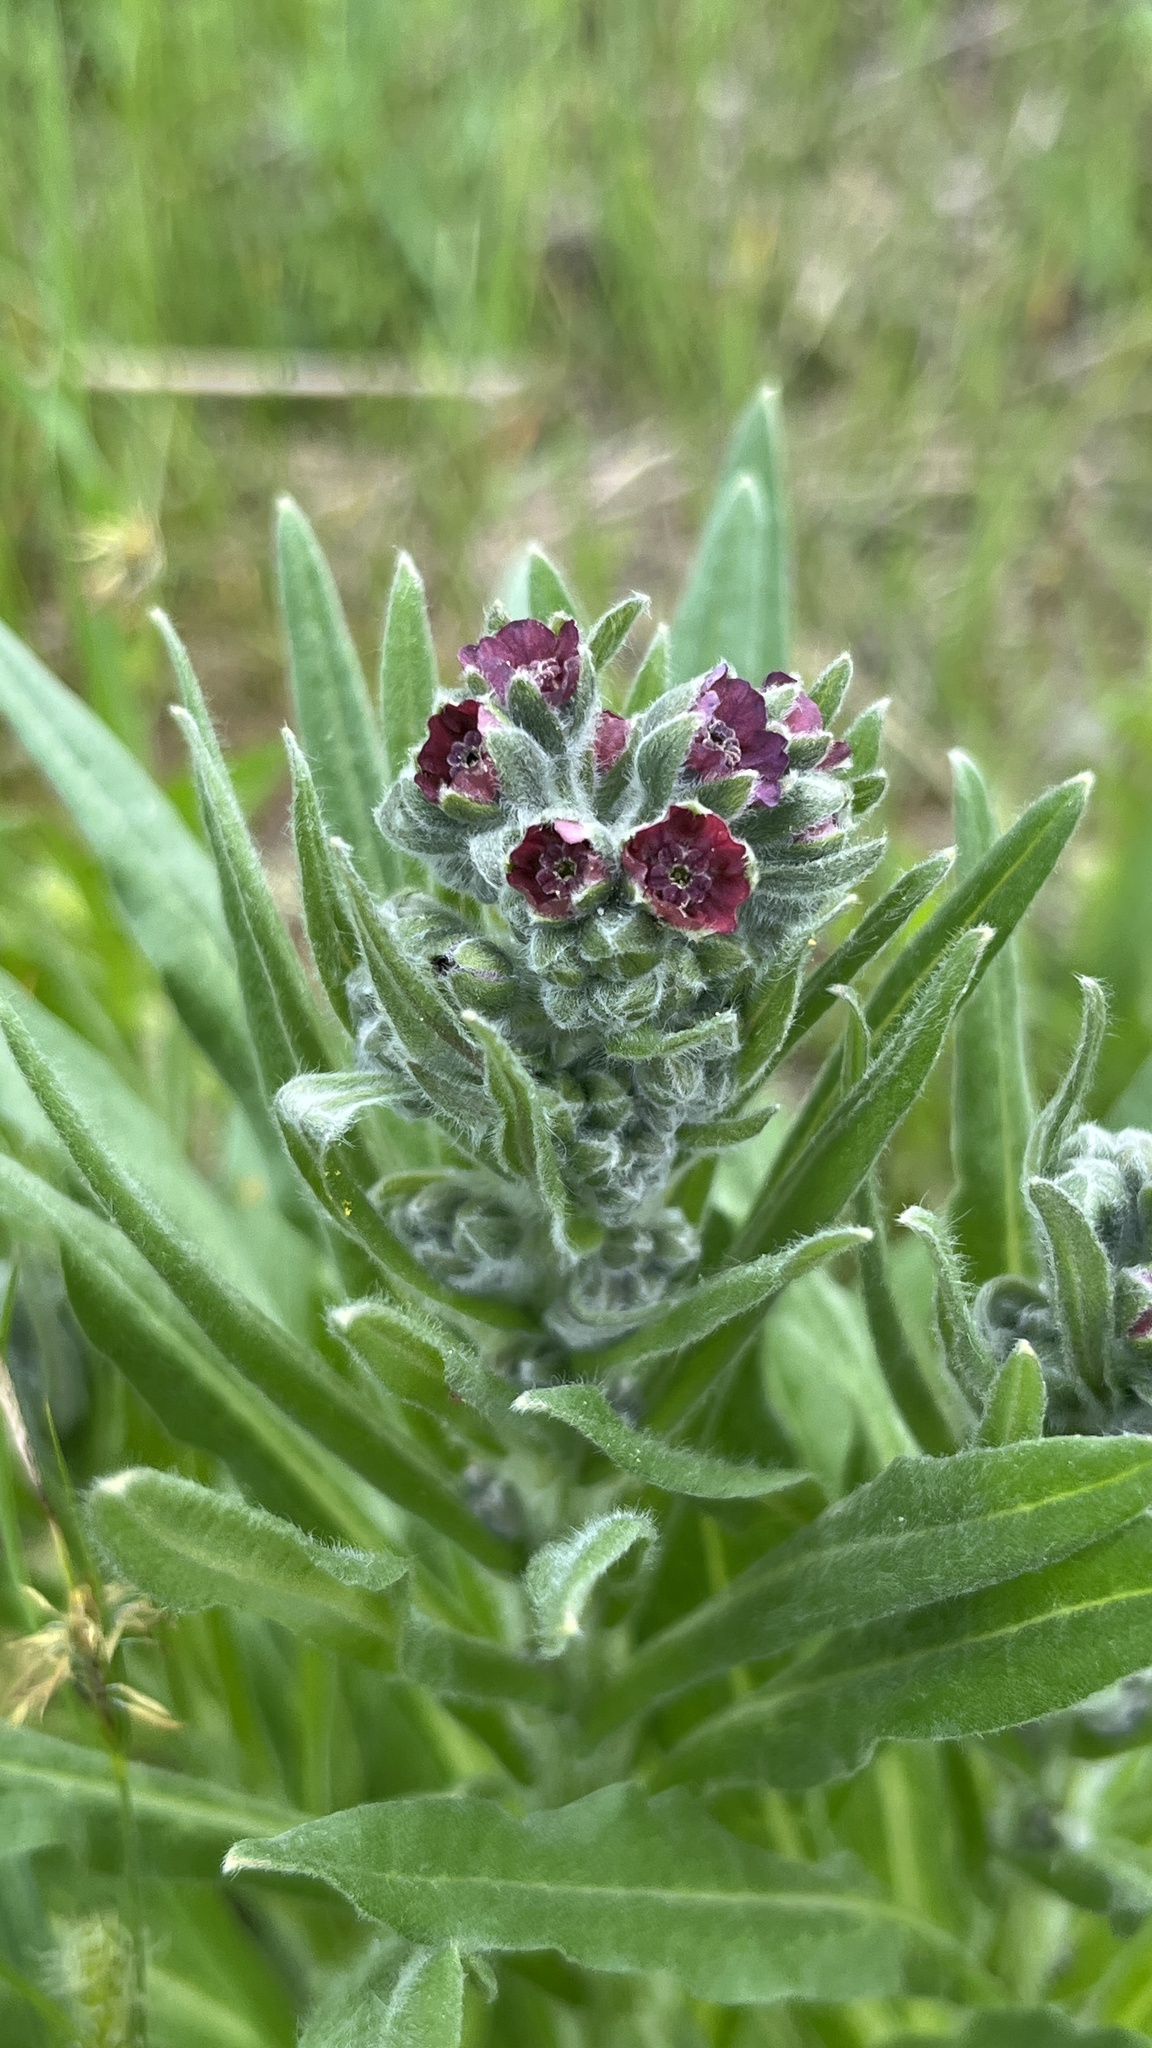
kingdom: Plantae
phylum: Tracheophyta
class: Magnoliopsida
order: Boraginales
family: Boraginaceae
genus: Cynoglossum
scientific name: Cynoglossum officinale
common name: Hound's-tongue
